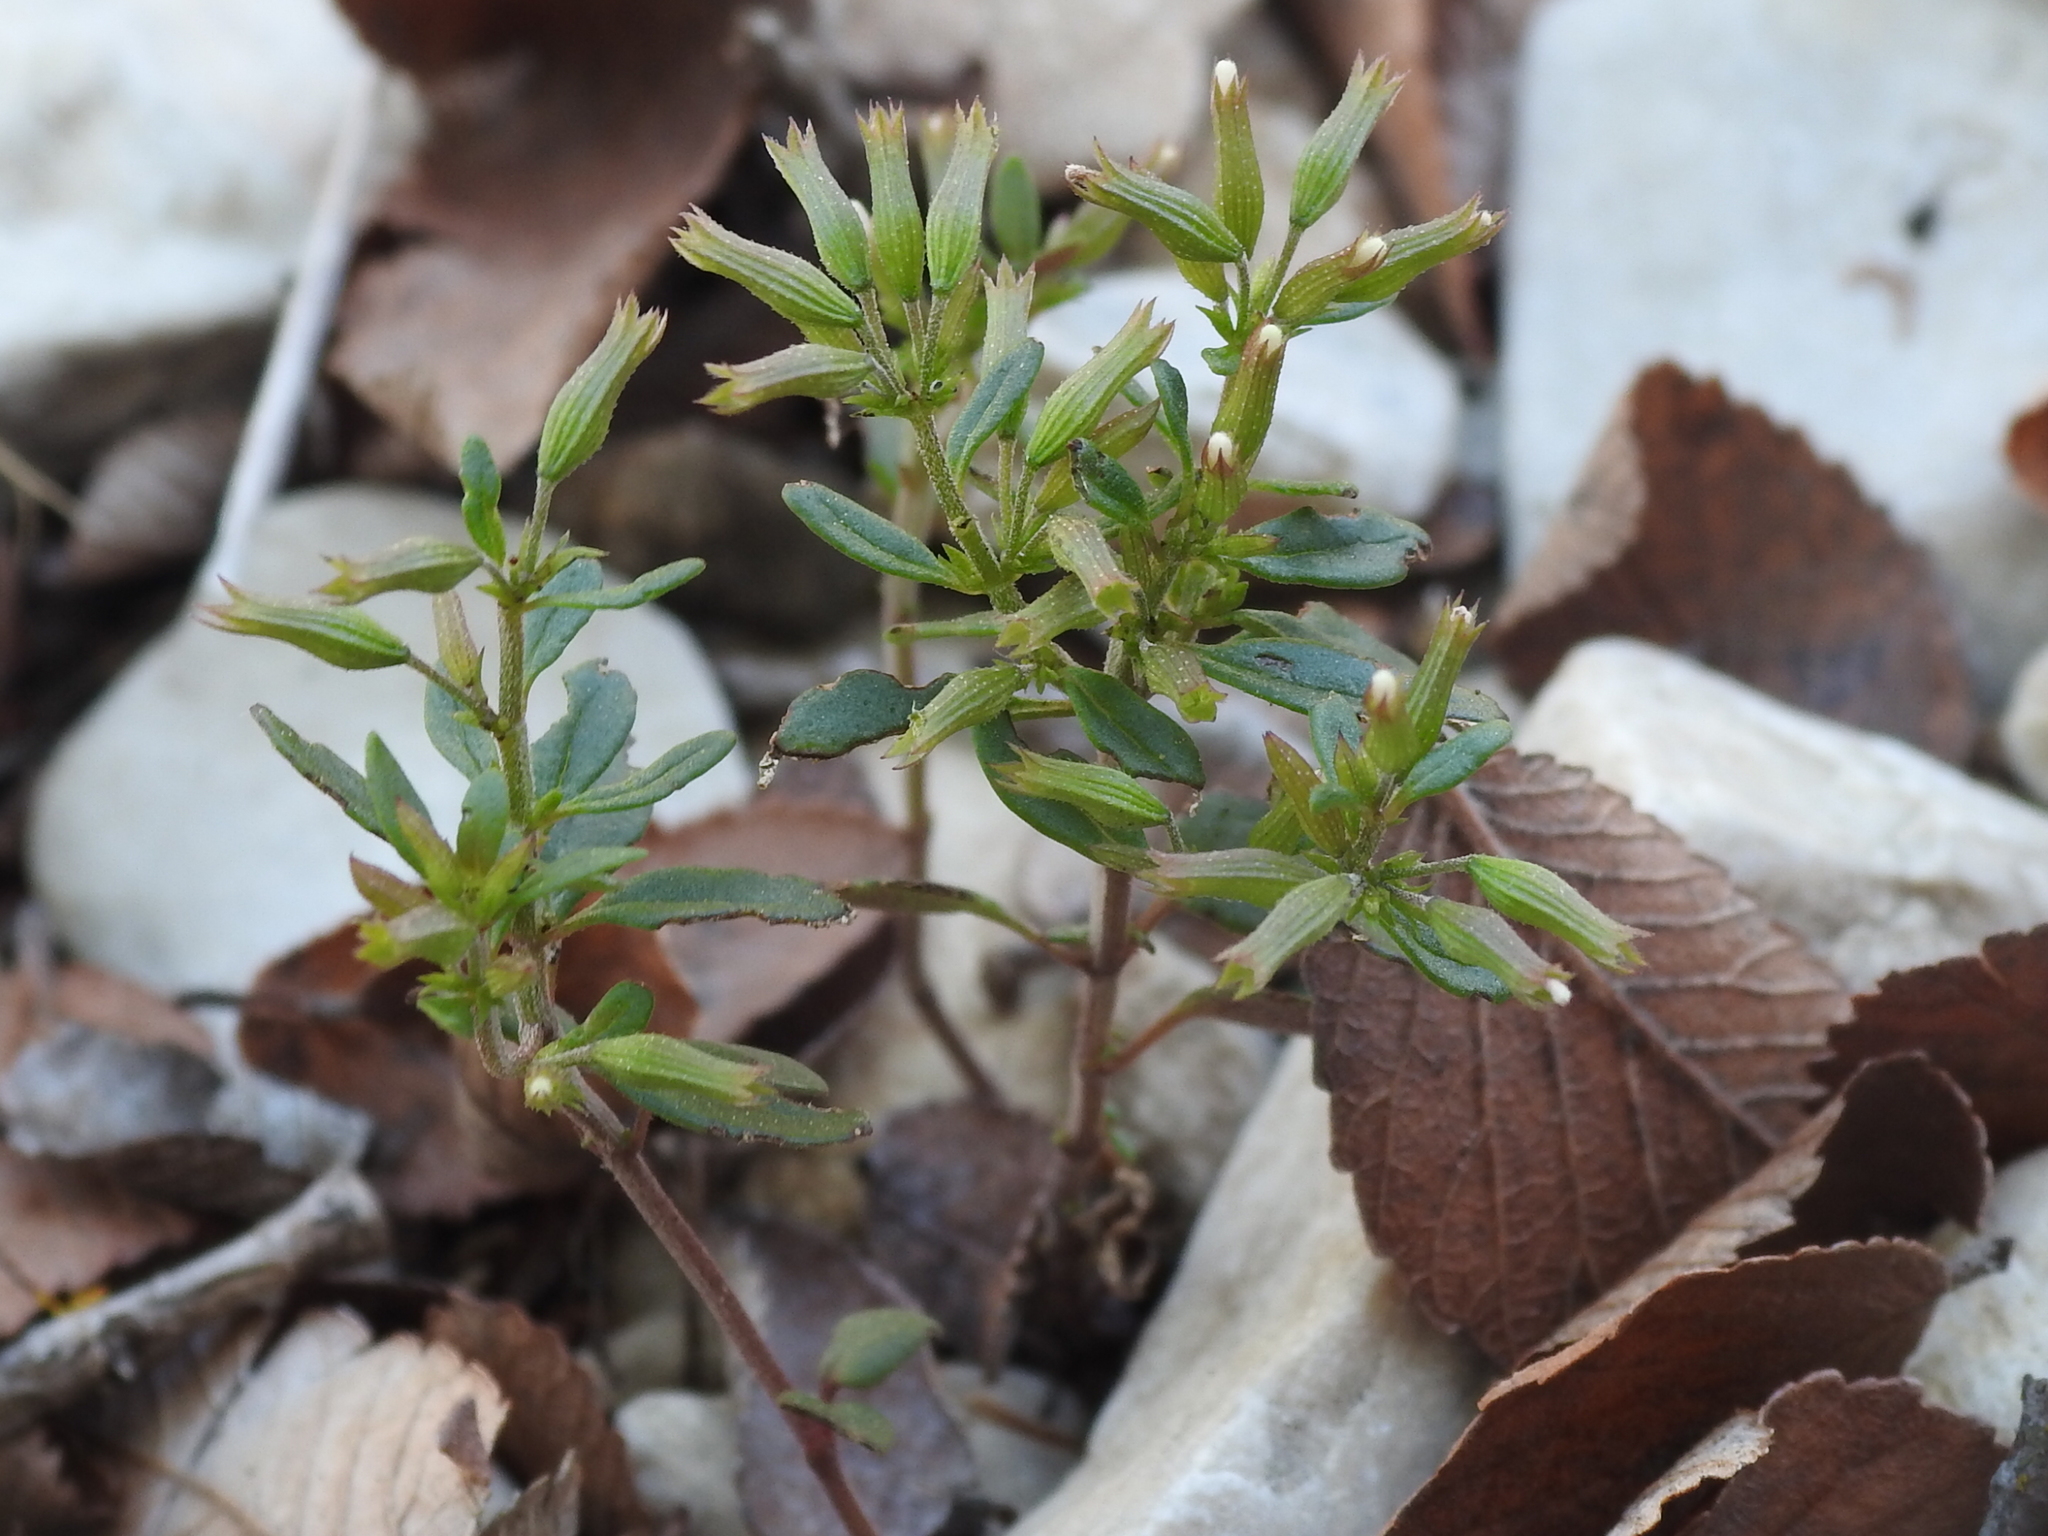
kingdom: Plantae
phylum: Tracheophyta
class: Magnoliopsida
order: Lamiales
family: Lamiaceae
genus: Hedeoma
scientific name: Hedeoma acinoides
